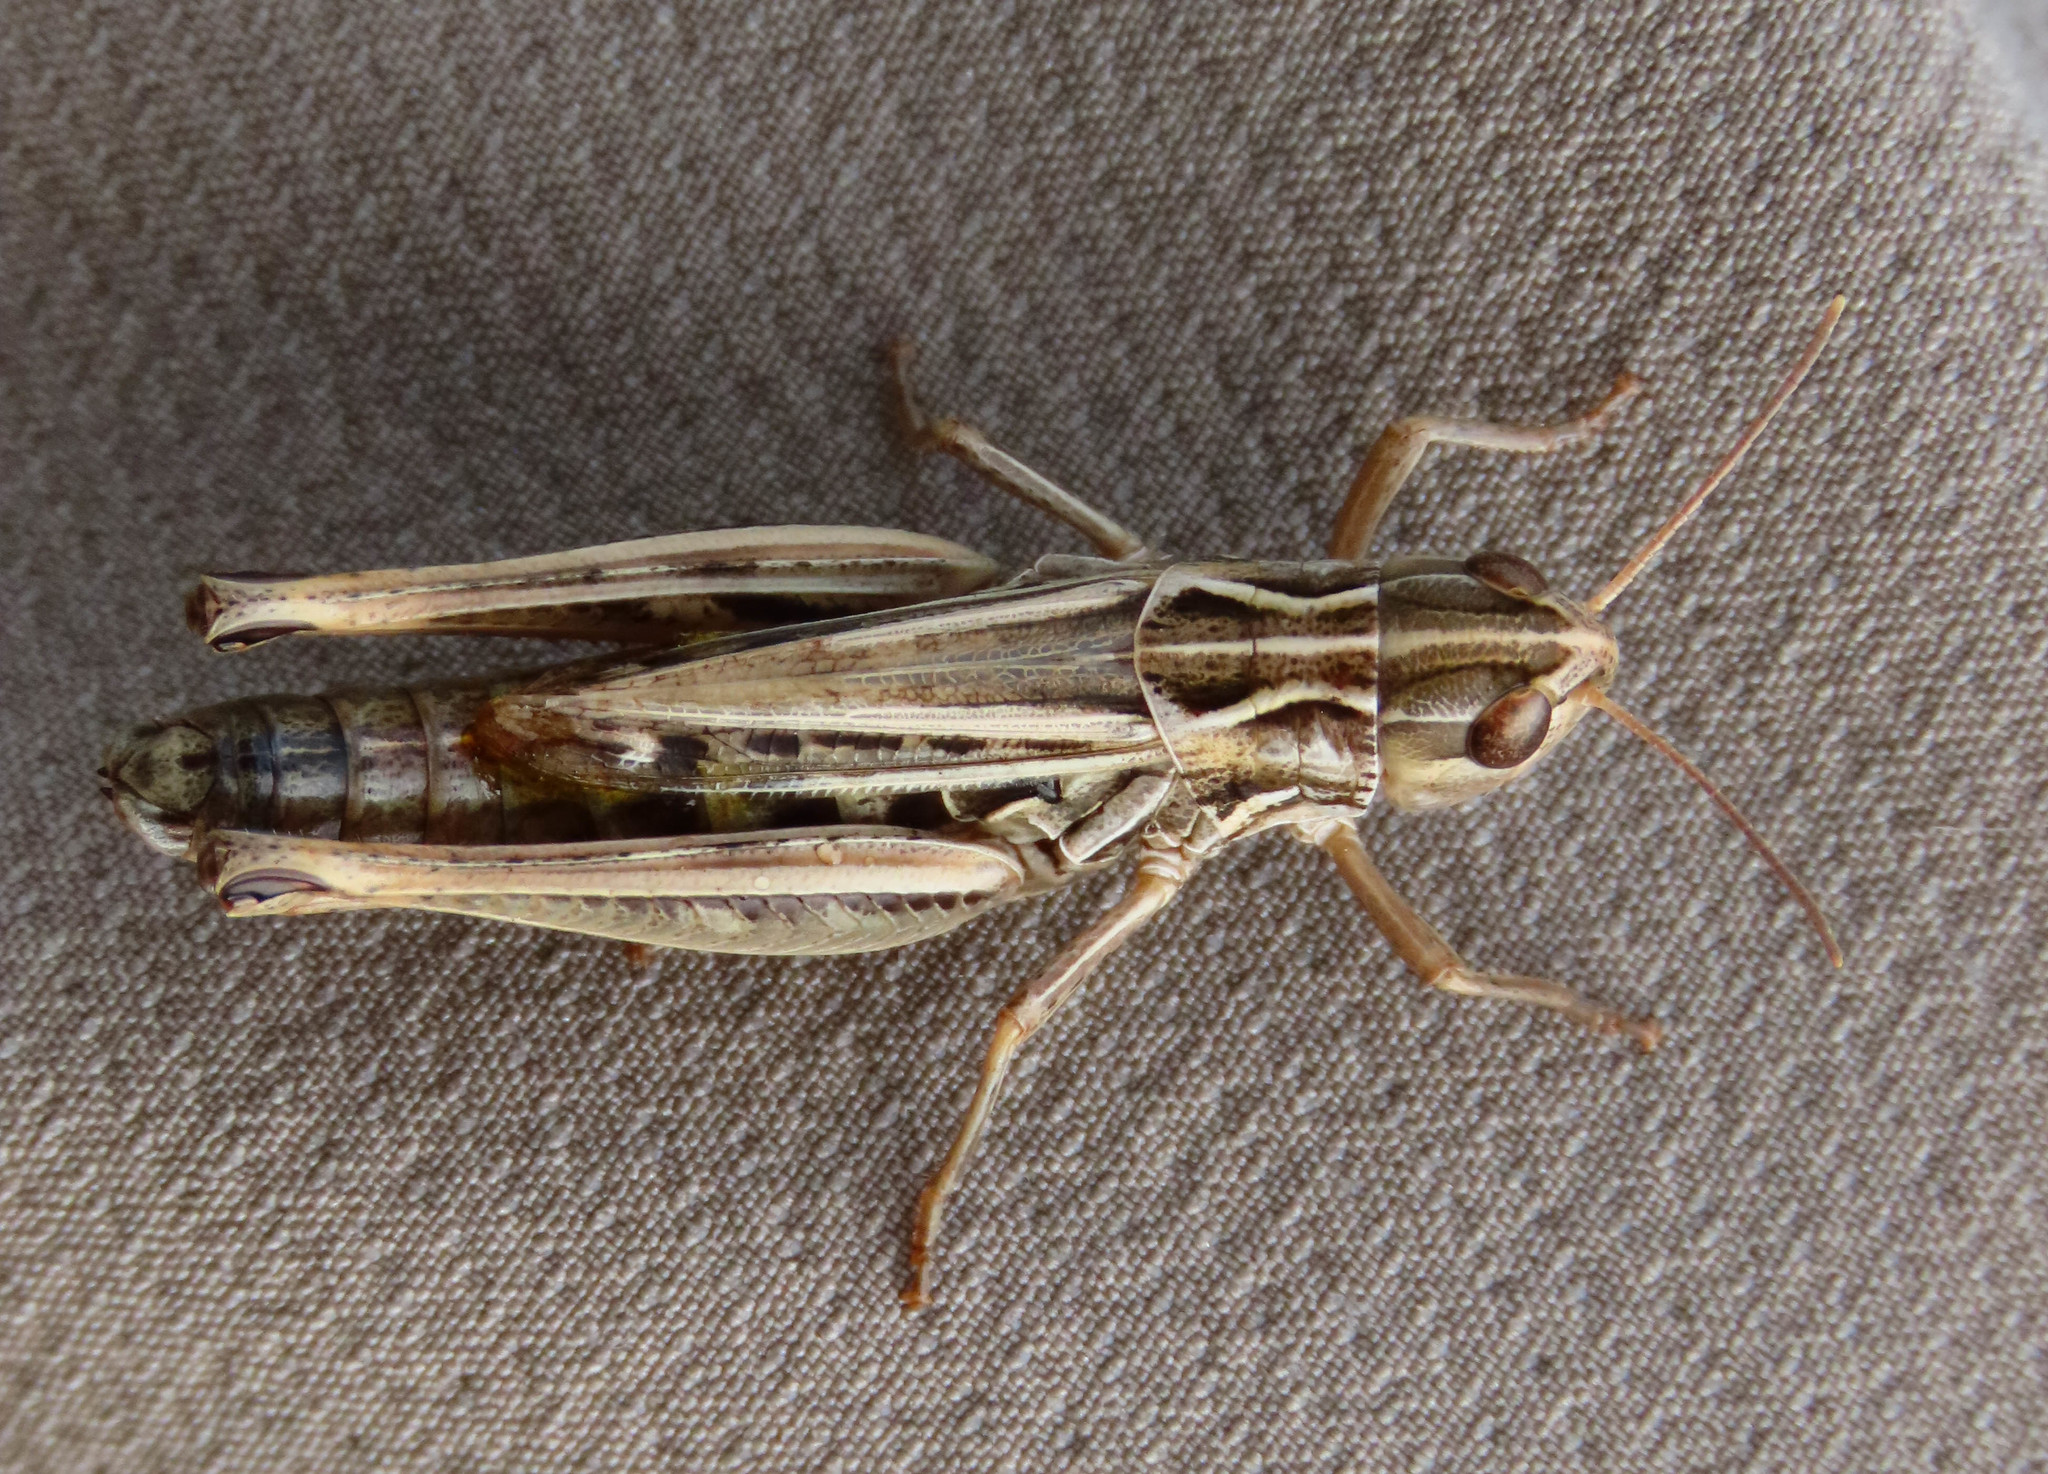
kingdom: Animalia
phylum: Arthropoda
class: Insecta
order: Orthoptera
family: Acrididae
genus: Stenobothrus
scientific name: Stenobothrus nigromaculatus
